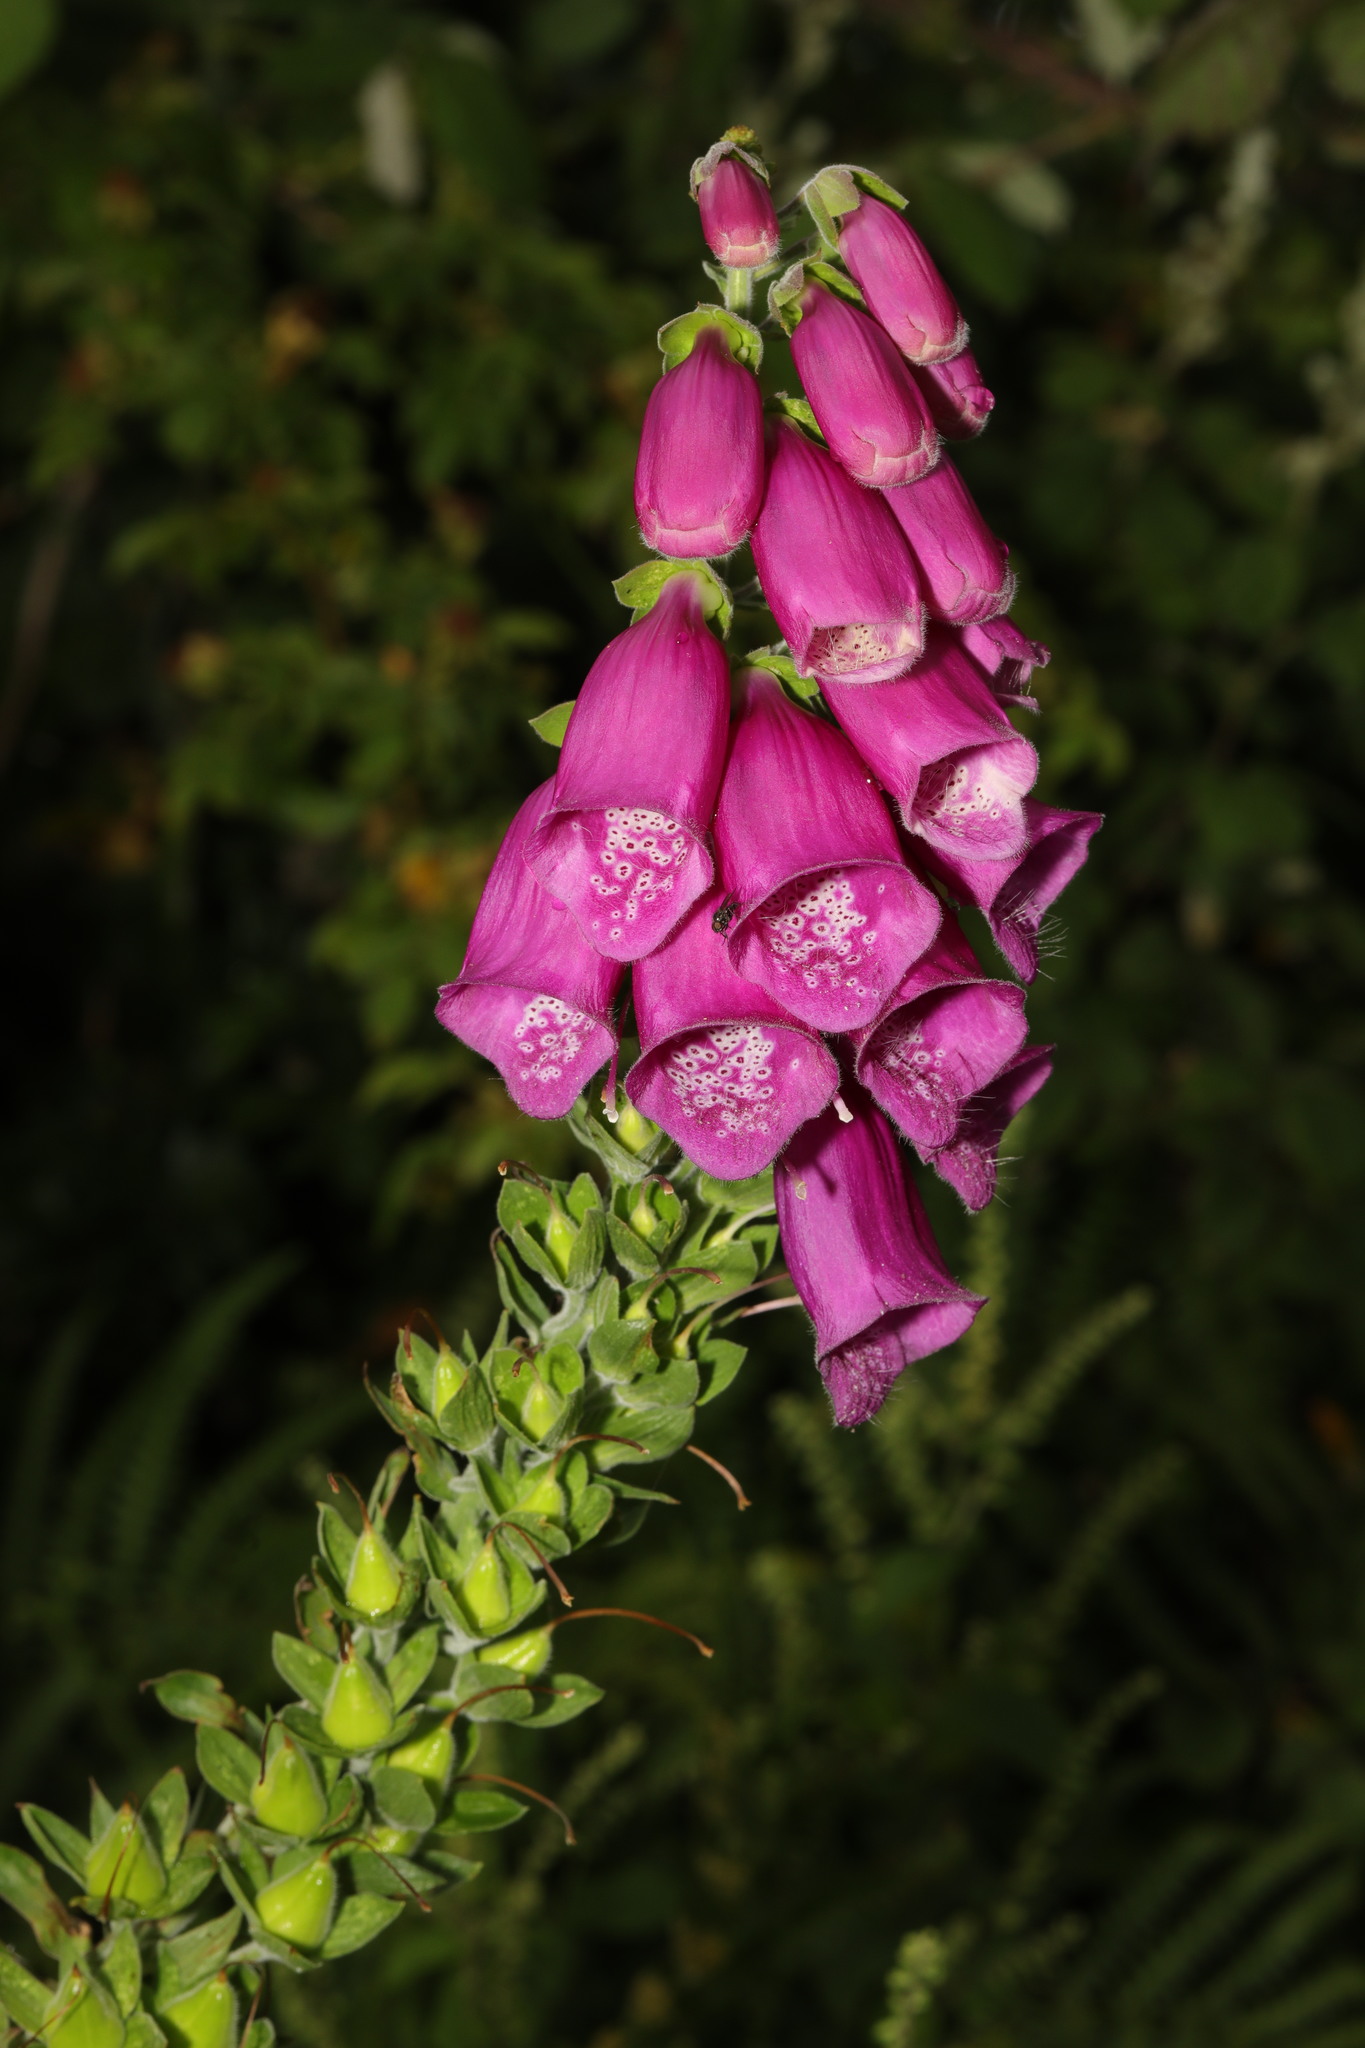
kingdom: Plantae
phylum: Tracheophyta
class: Magnoliopsida
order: Lamiales
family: Plantaginaceae
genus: Digitalis
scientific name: Digitalis purpurea
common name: Foxglove
